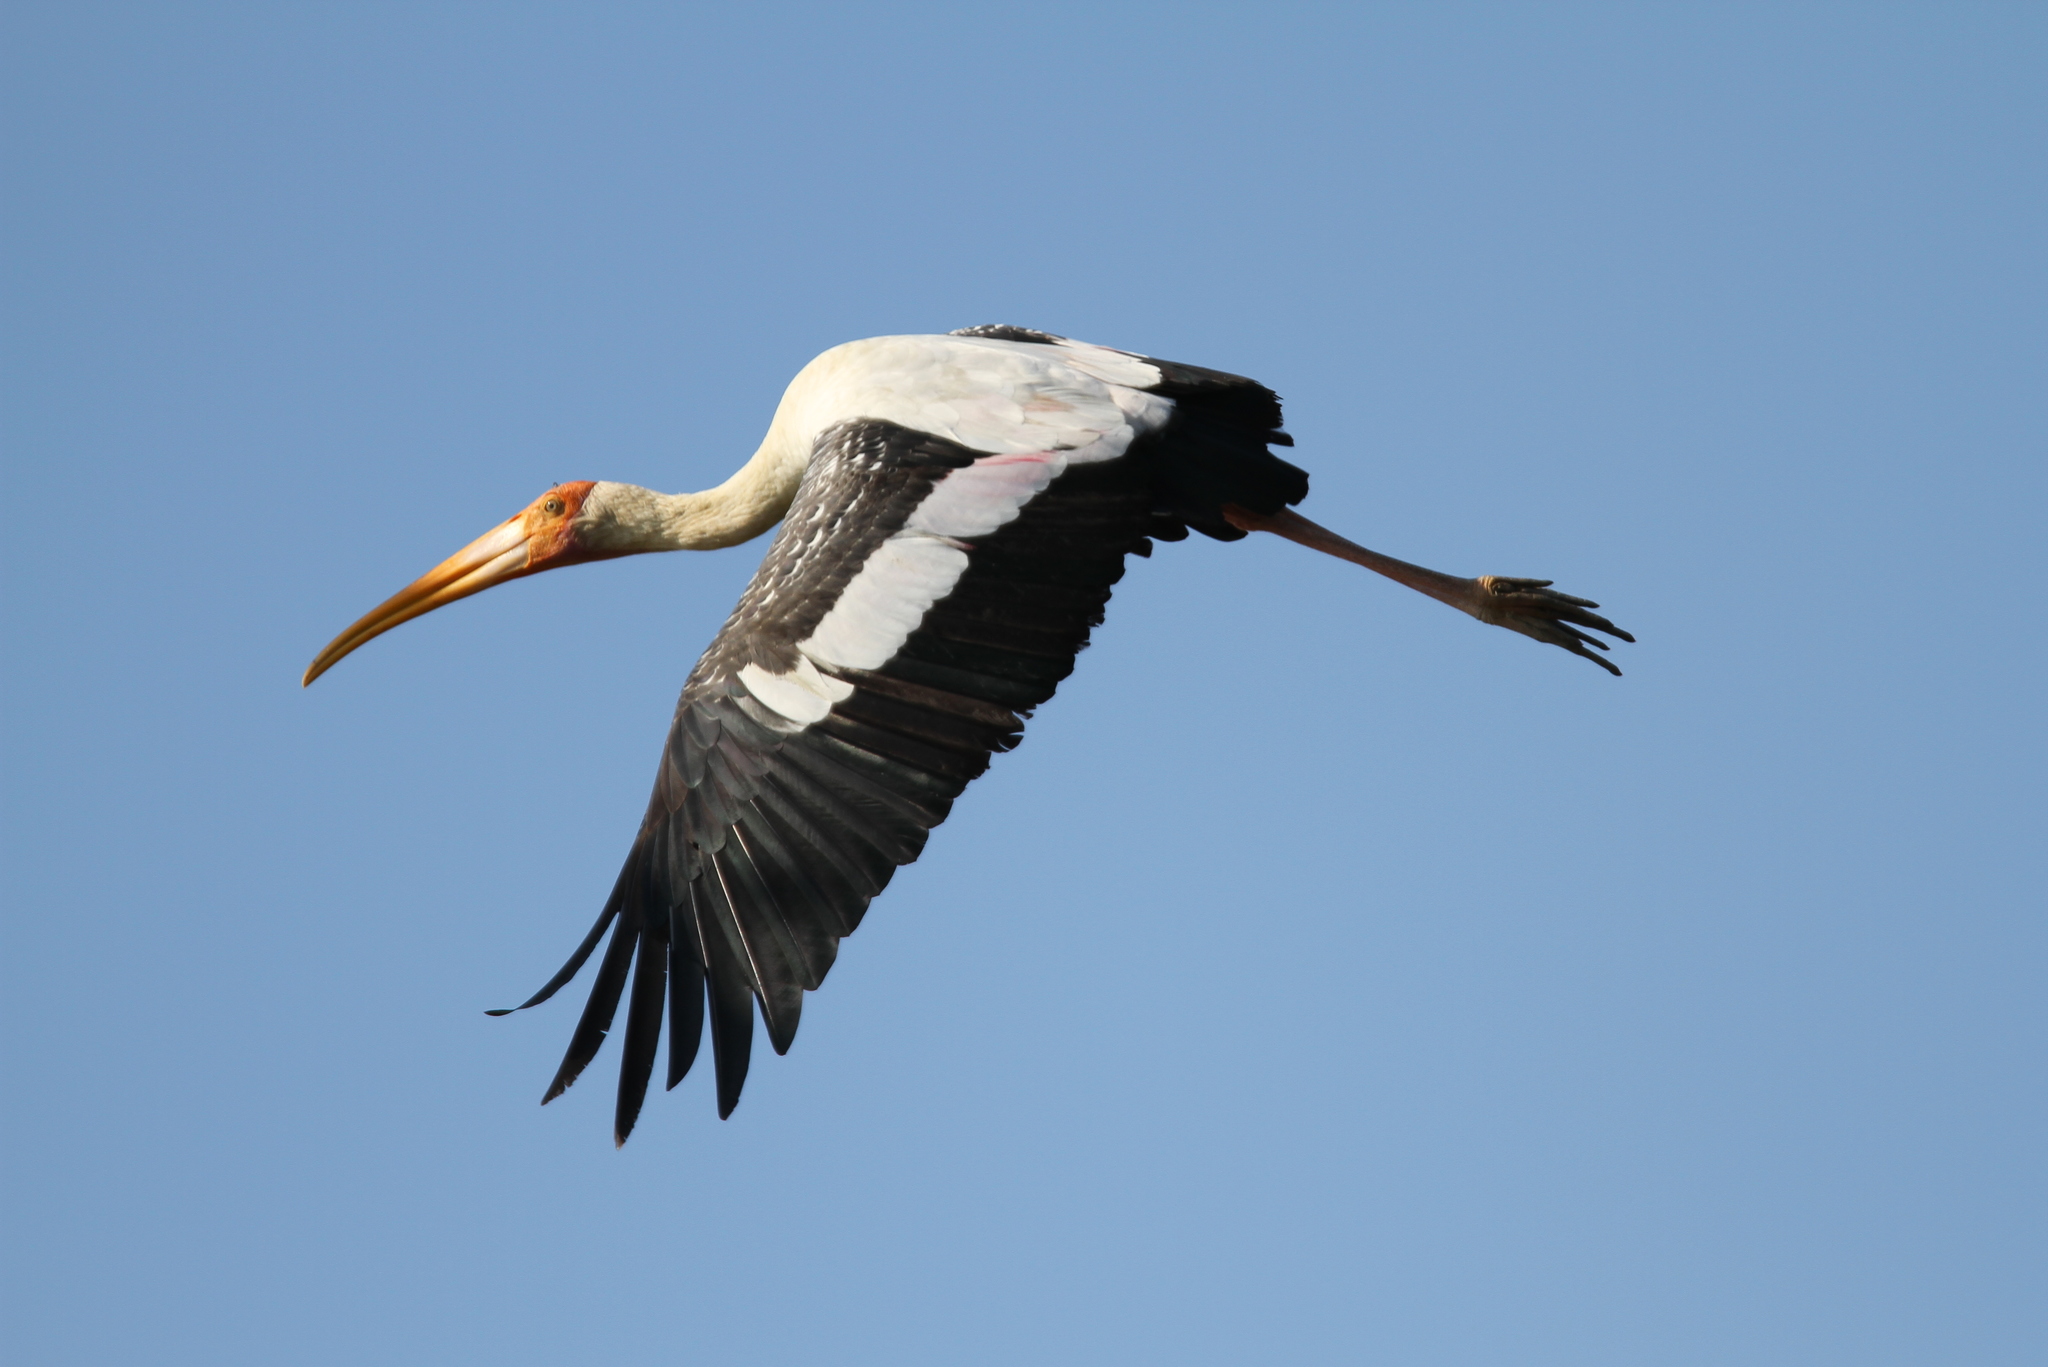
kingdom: Animalia
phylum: Chordata
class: Aves
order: Ciconiiformes
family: Ciconiidae
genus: Mycteria
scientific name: Mycteria leucocephala
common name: Painted stork
